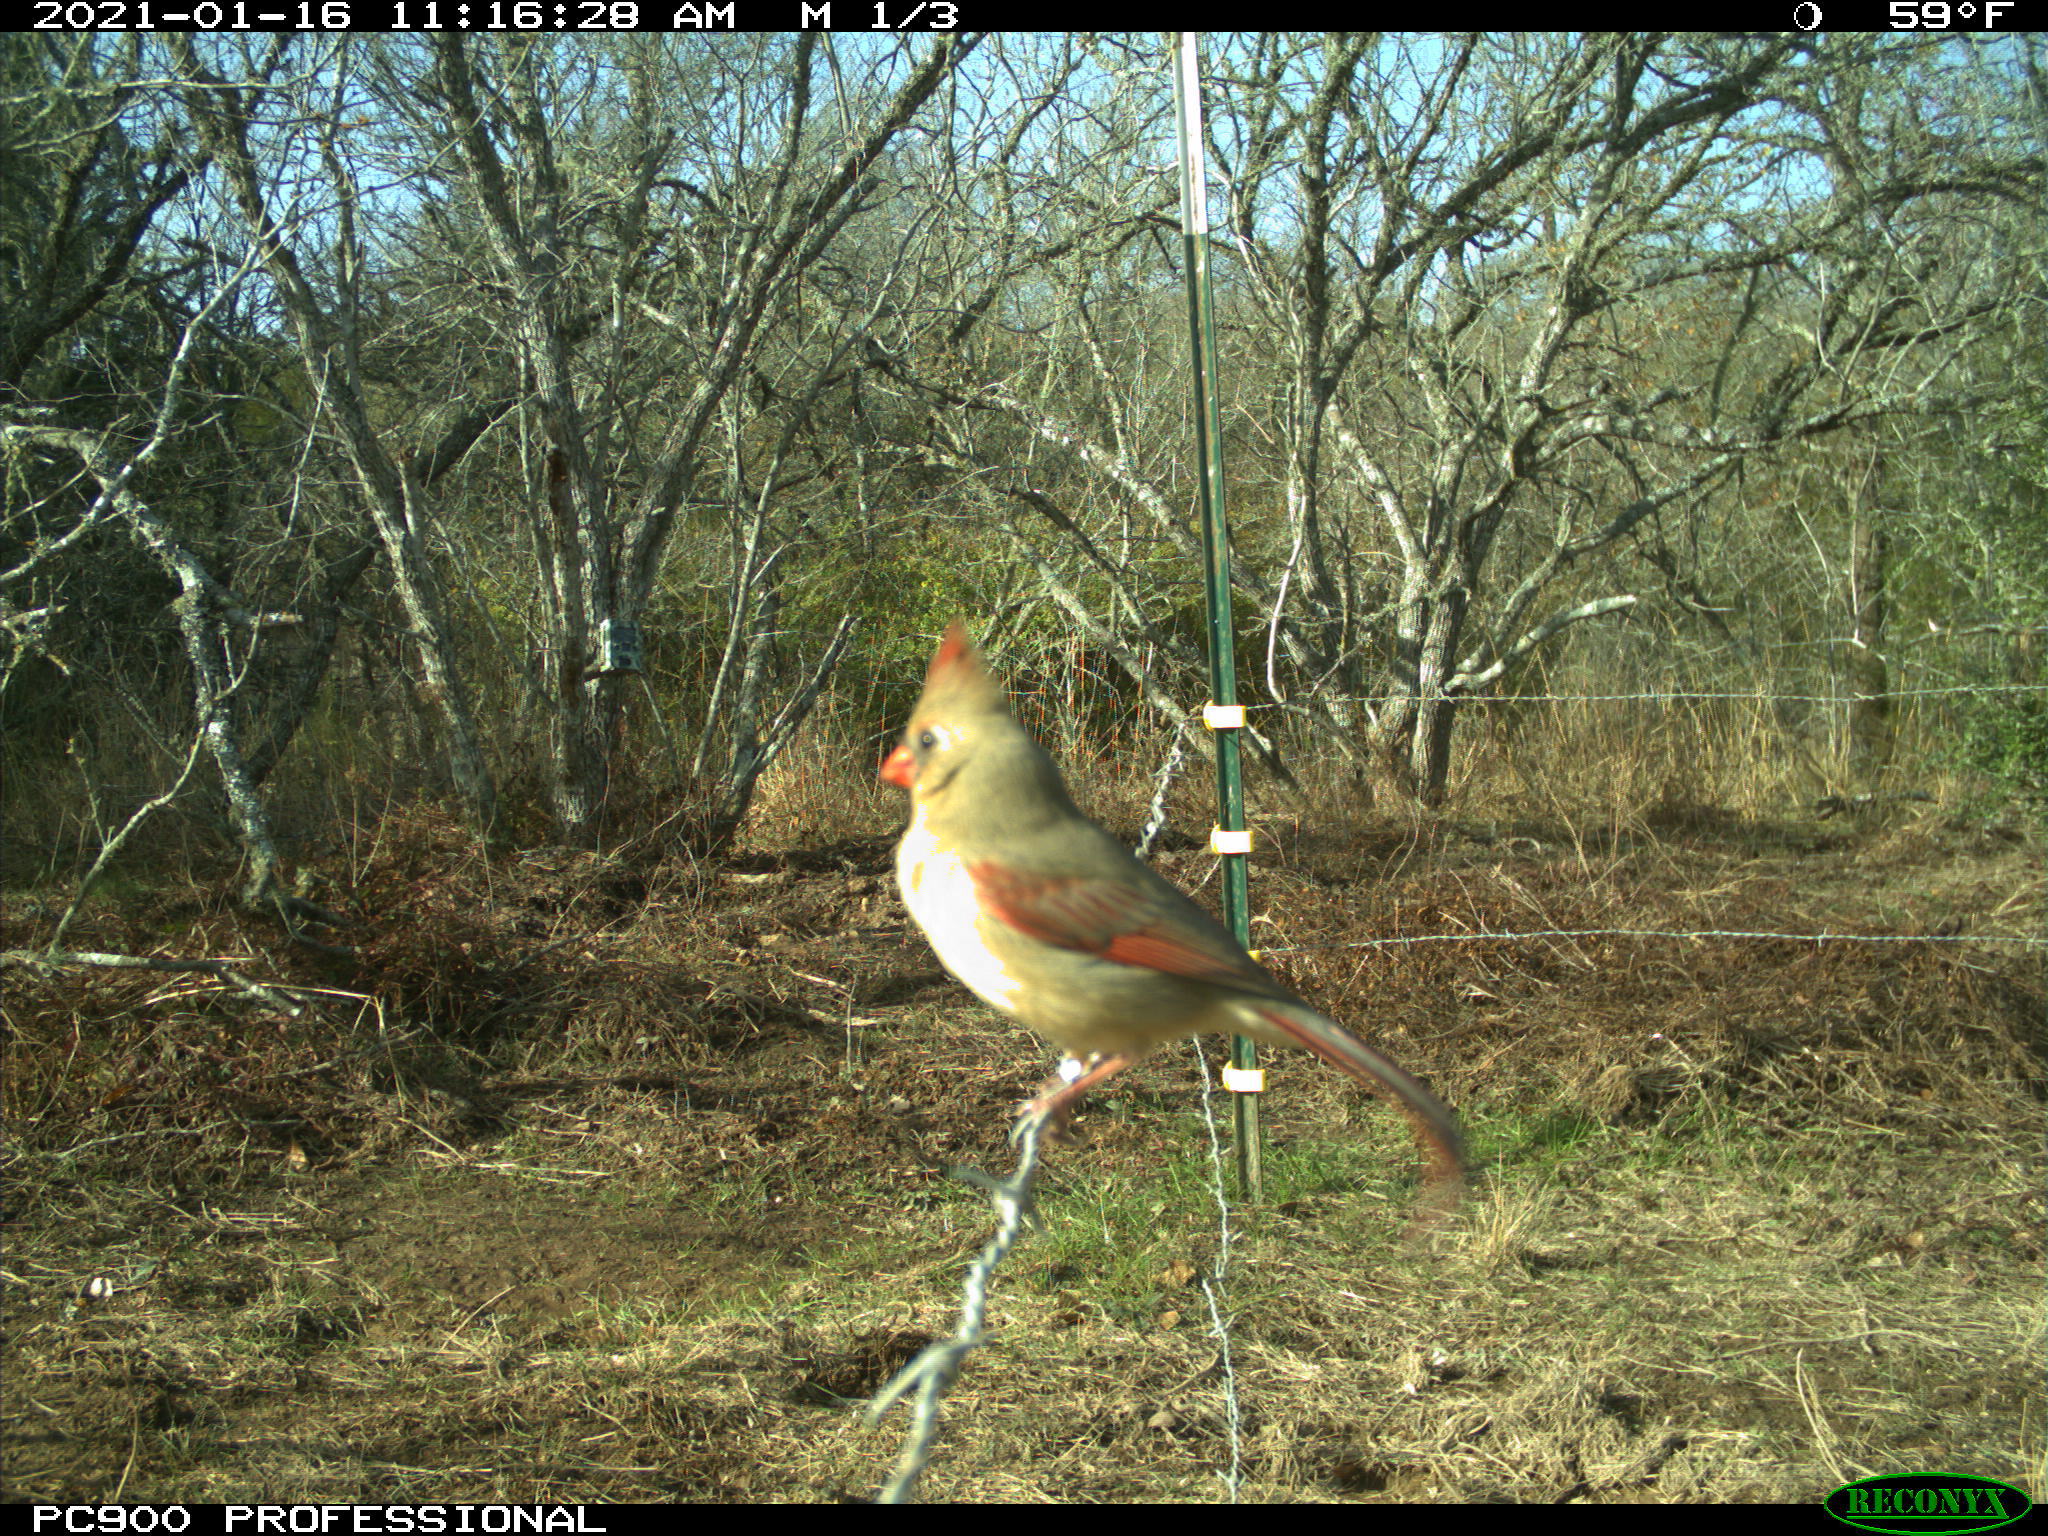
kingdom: Animalia
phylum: Chordata
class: Aves
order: Passeriformes
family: Cardinalidae
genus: Cardinalis
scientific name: Cardinalis cardinalis
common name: Northern cardinal
